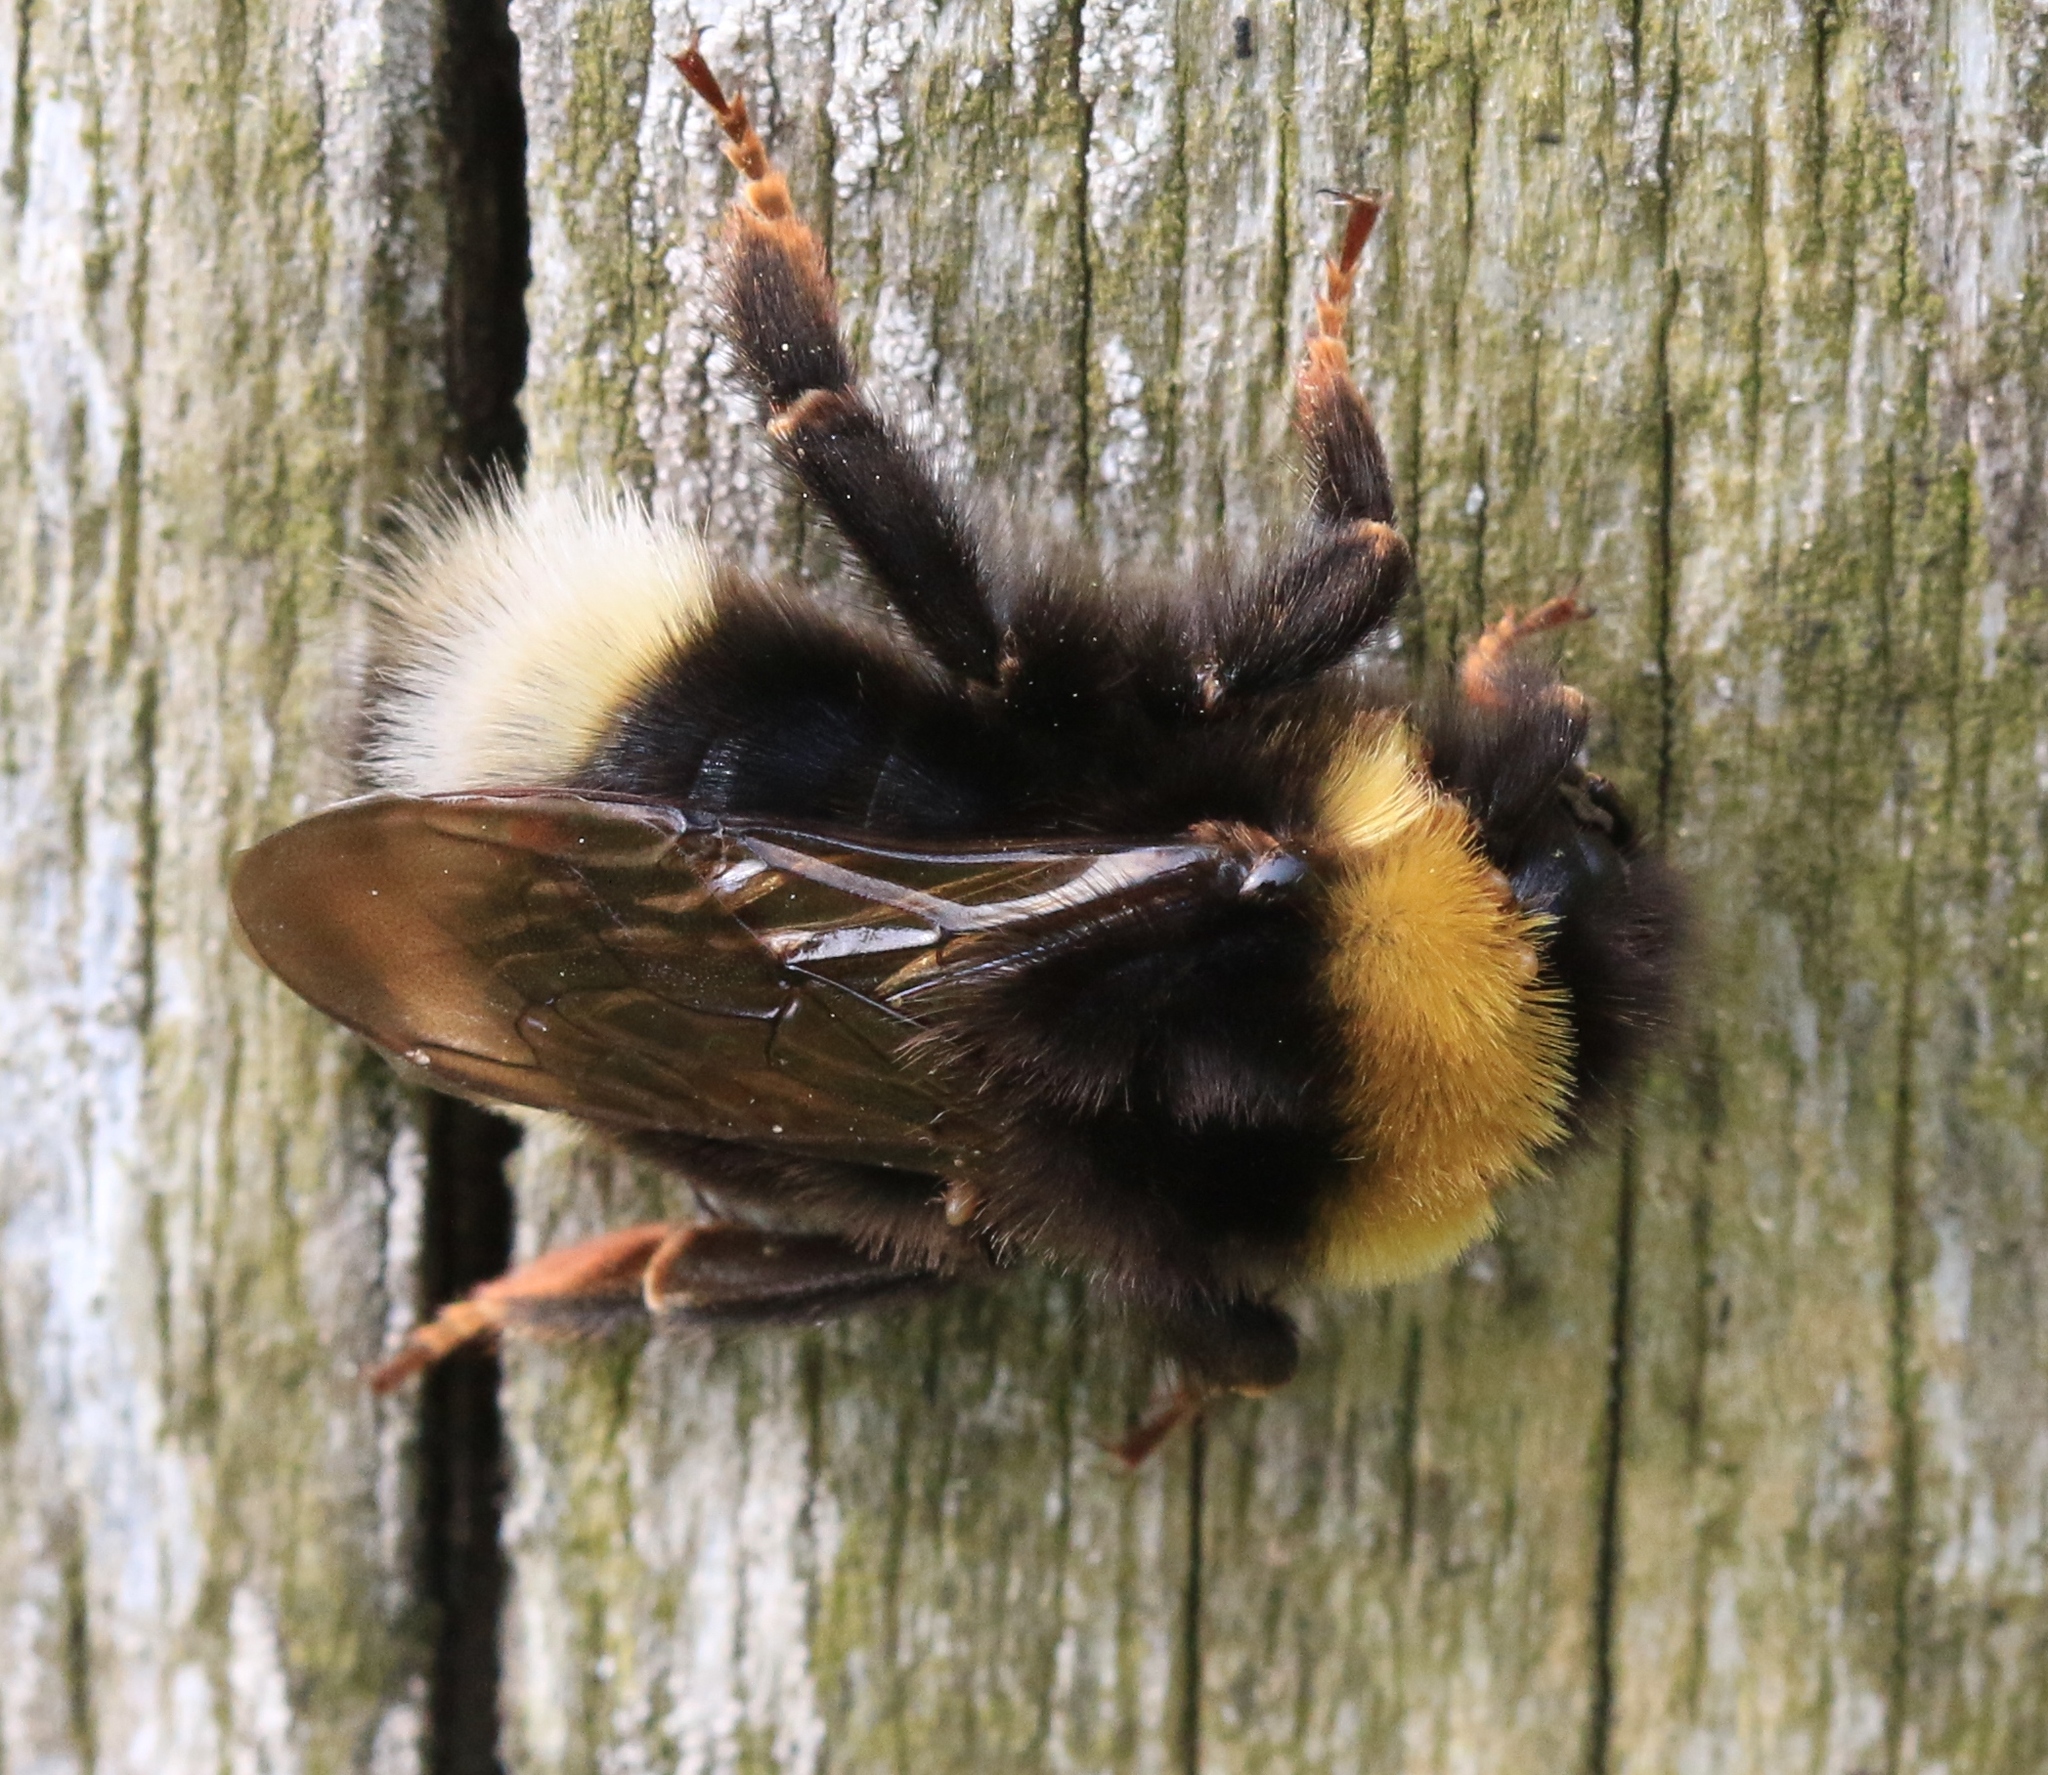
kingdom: Animalia
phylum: Arthropoda
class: Insecta
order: Hymenoptera
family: Apidae
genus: Bombus
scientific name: Bombus bohemicus
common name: Gypsy cuckoo bee
